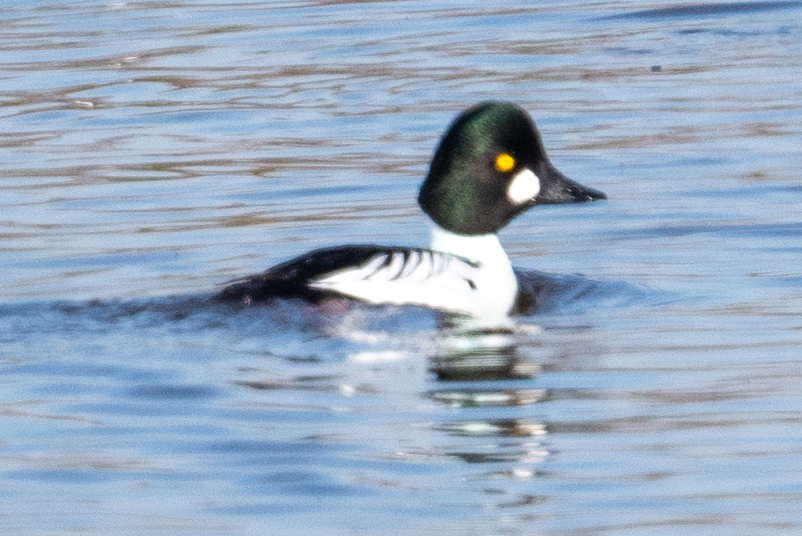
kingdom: Animalia
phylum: Chordata
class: Aves
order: Anseriformes
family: Anatidae
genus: Bucephala
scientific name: Bucephala clangula
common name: Common goldeneye
